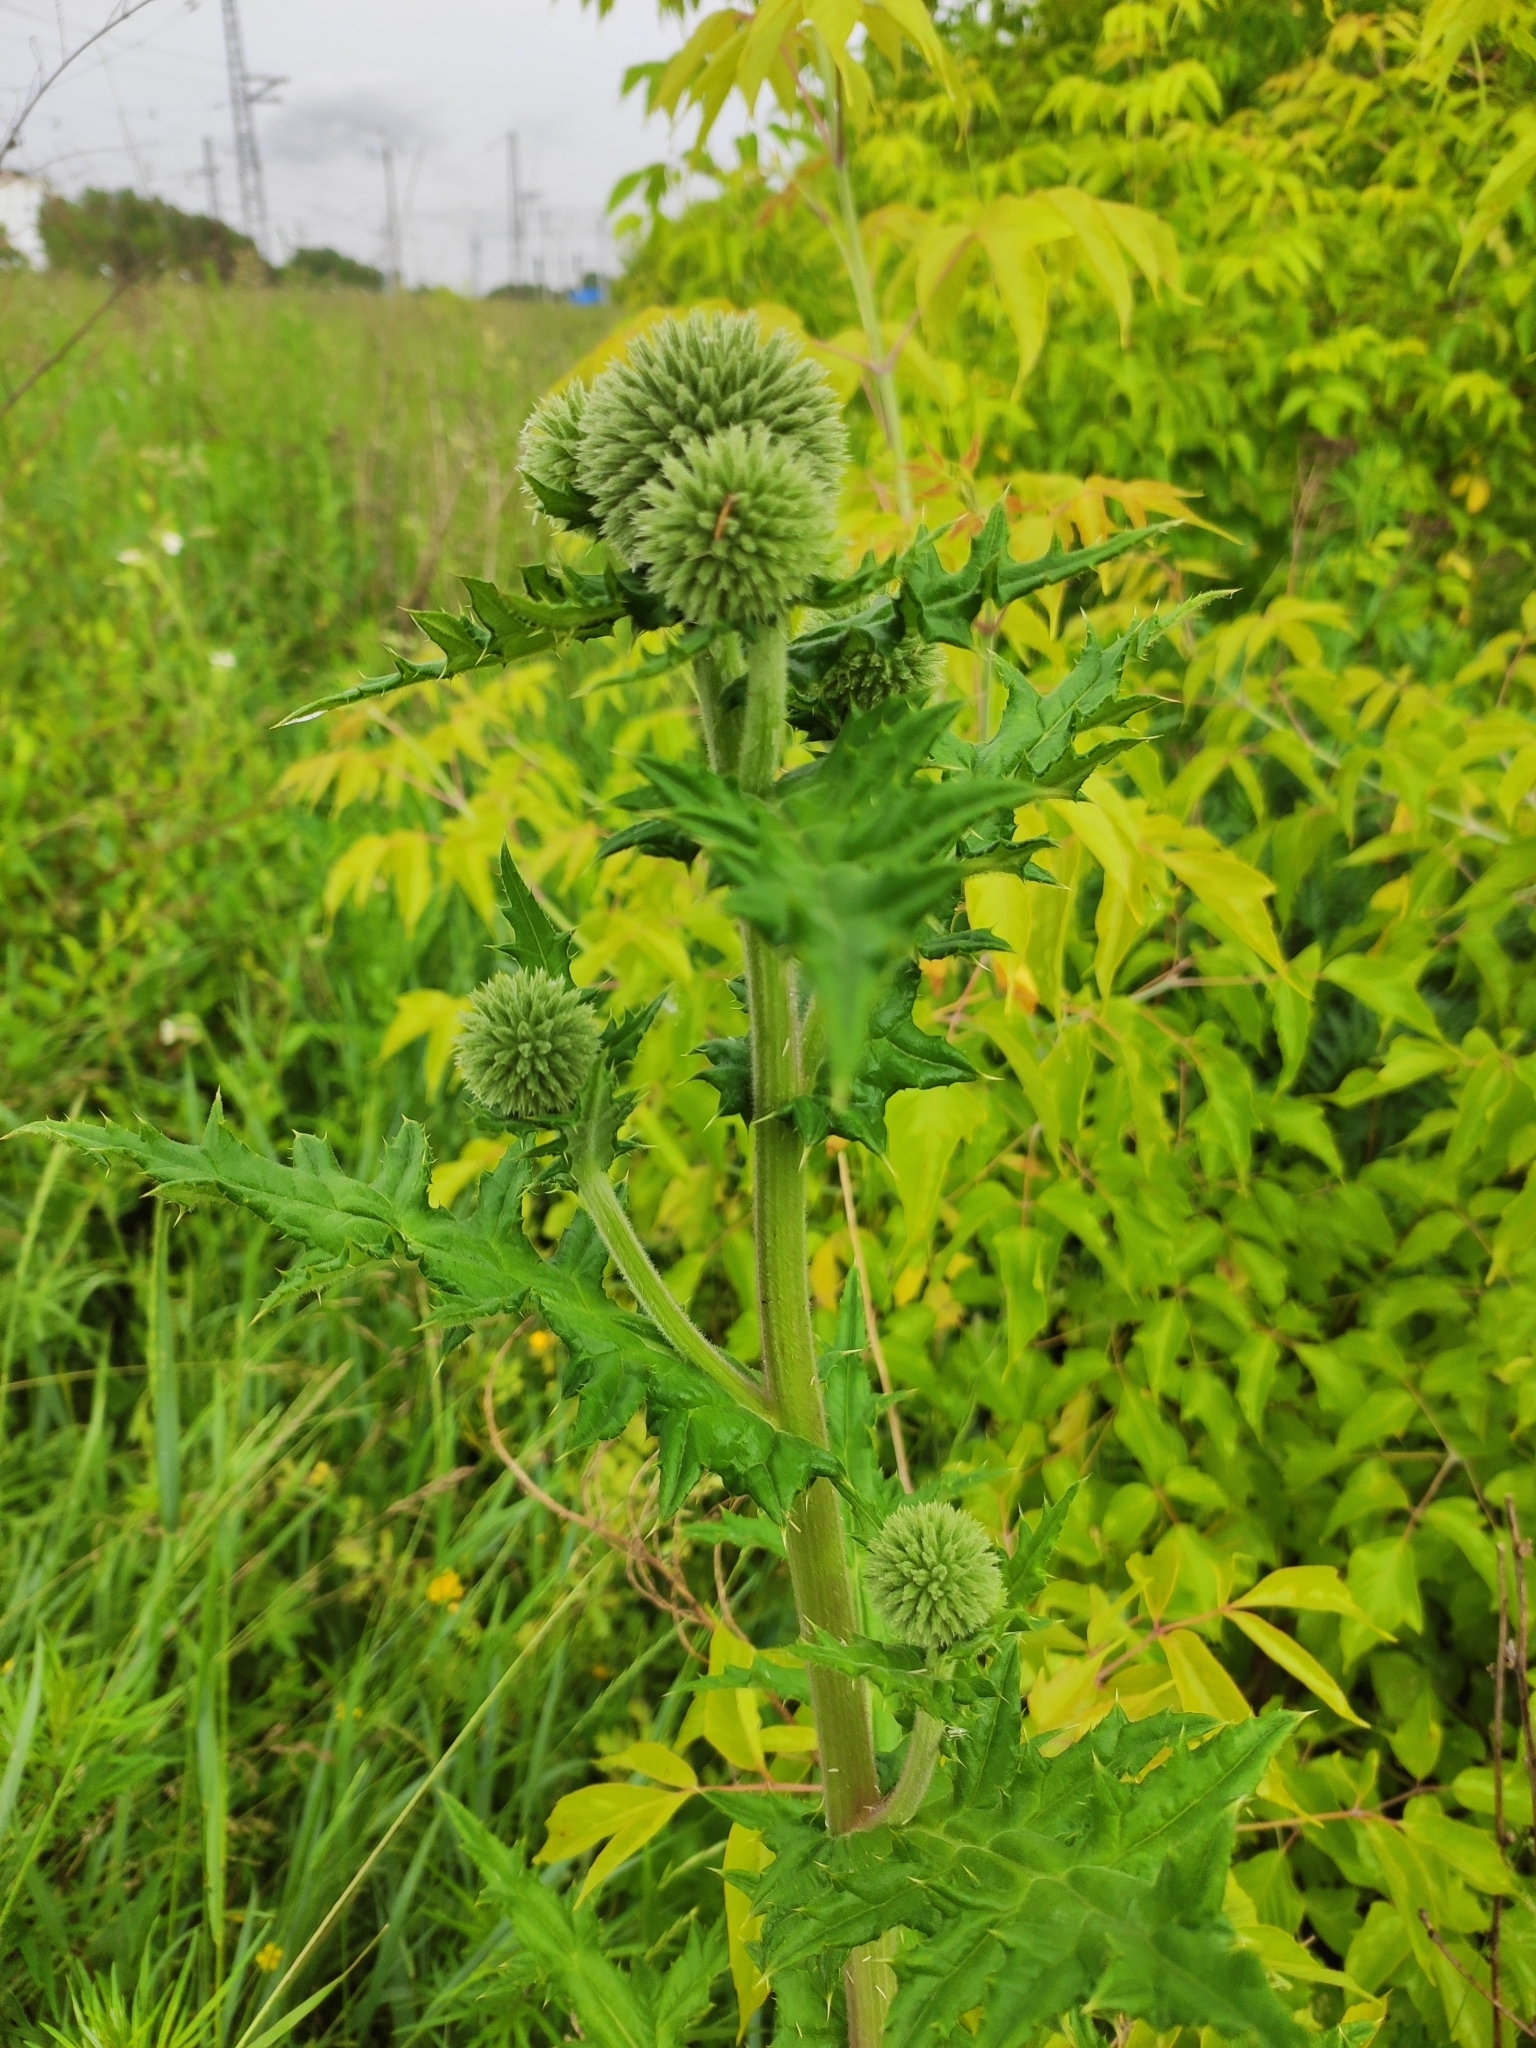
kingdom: Plantae
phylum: Tracheophyta
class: Magnoliopsida
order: Asterales
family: Asteraceae
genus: Echinops
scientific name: Echinops sphaerocephalus
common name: Glandular globe-thistle
